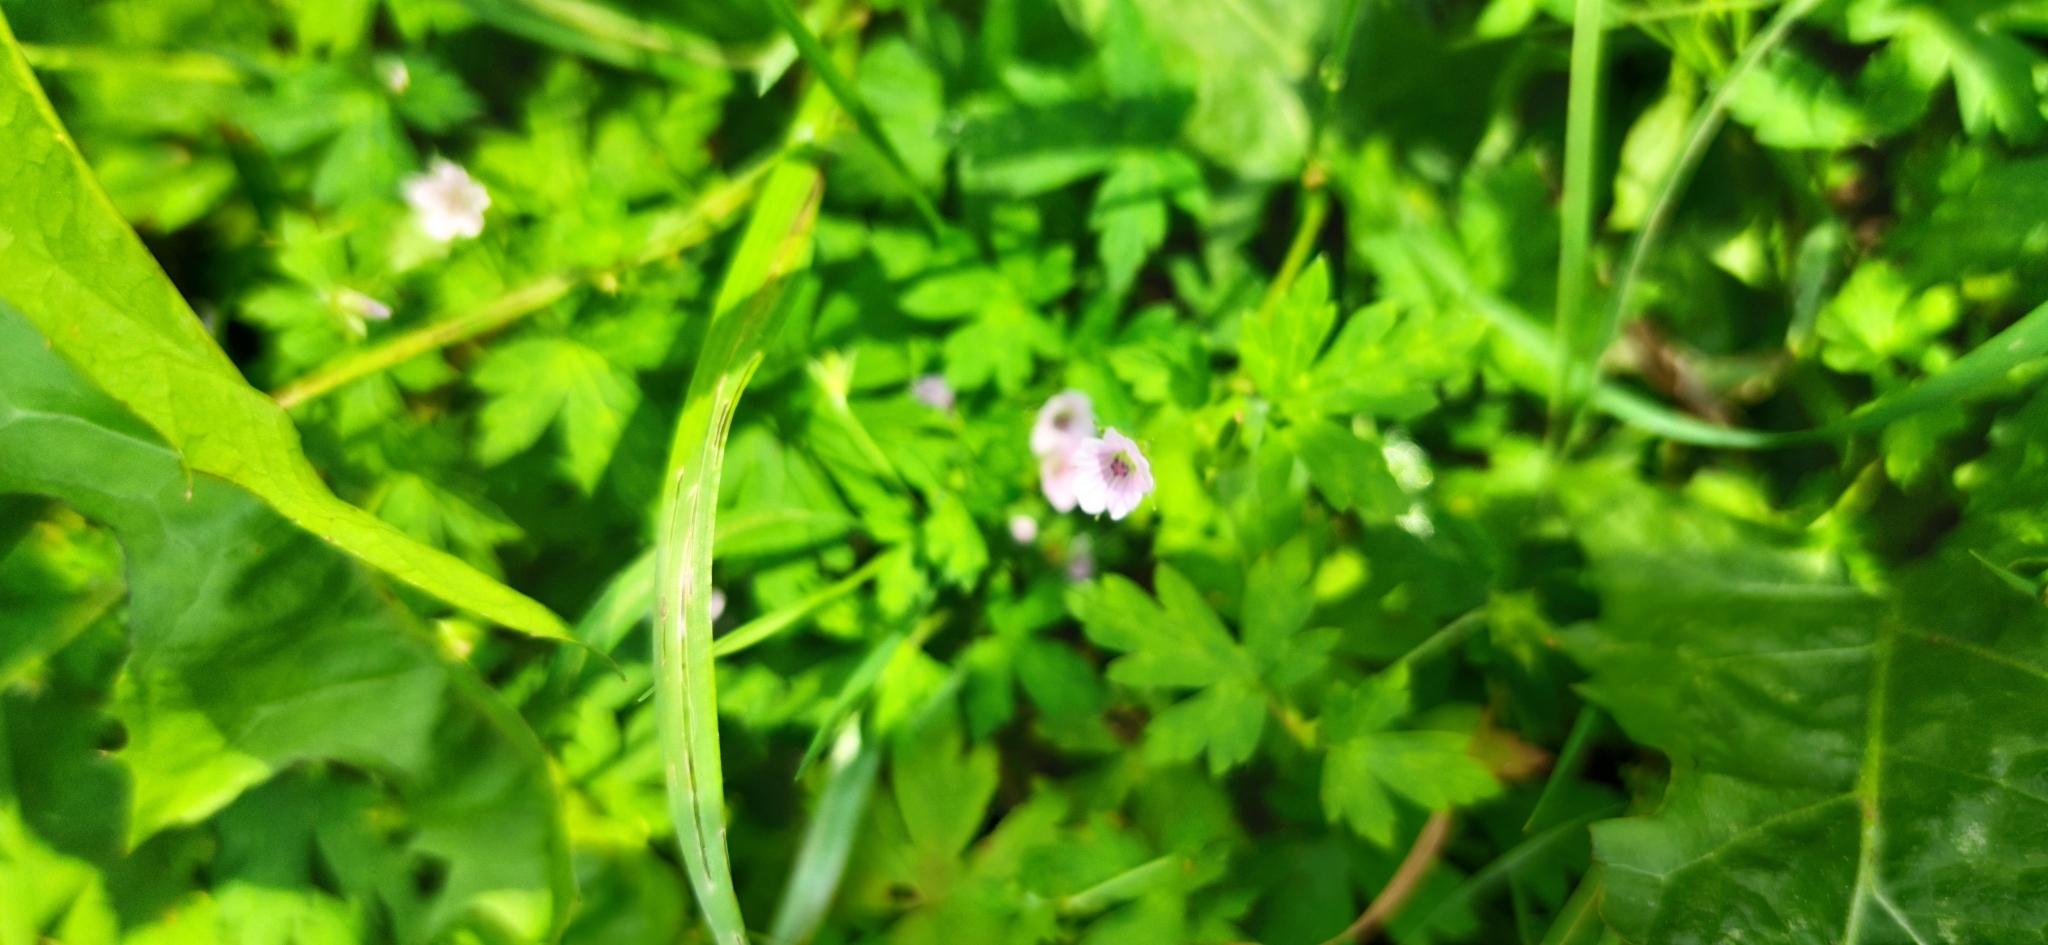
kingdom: Plantae
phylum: Tracheophyta
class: Magnoliopsida
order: Geraniales
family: Geraniaceae
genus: Geranium
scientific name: Geranium sibiricum
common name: Siberian crane's-bill
